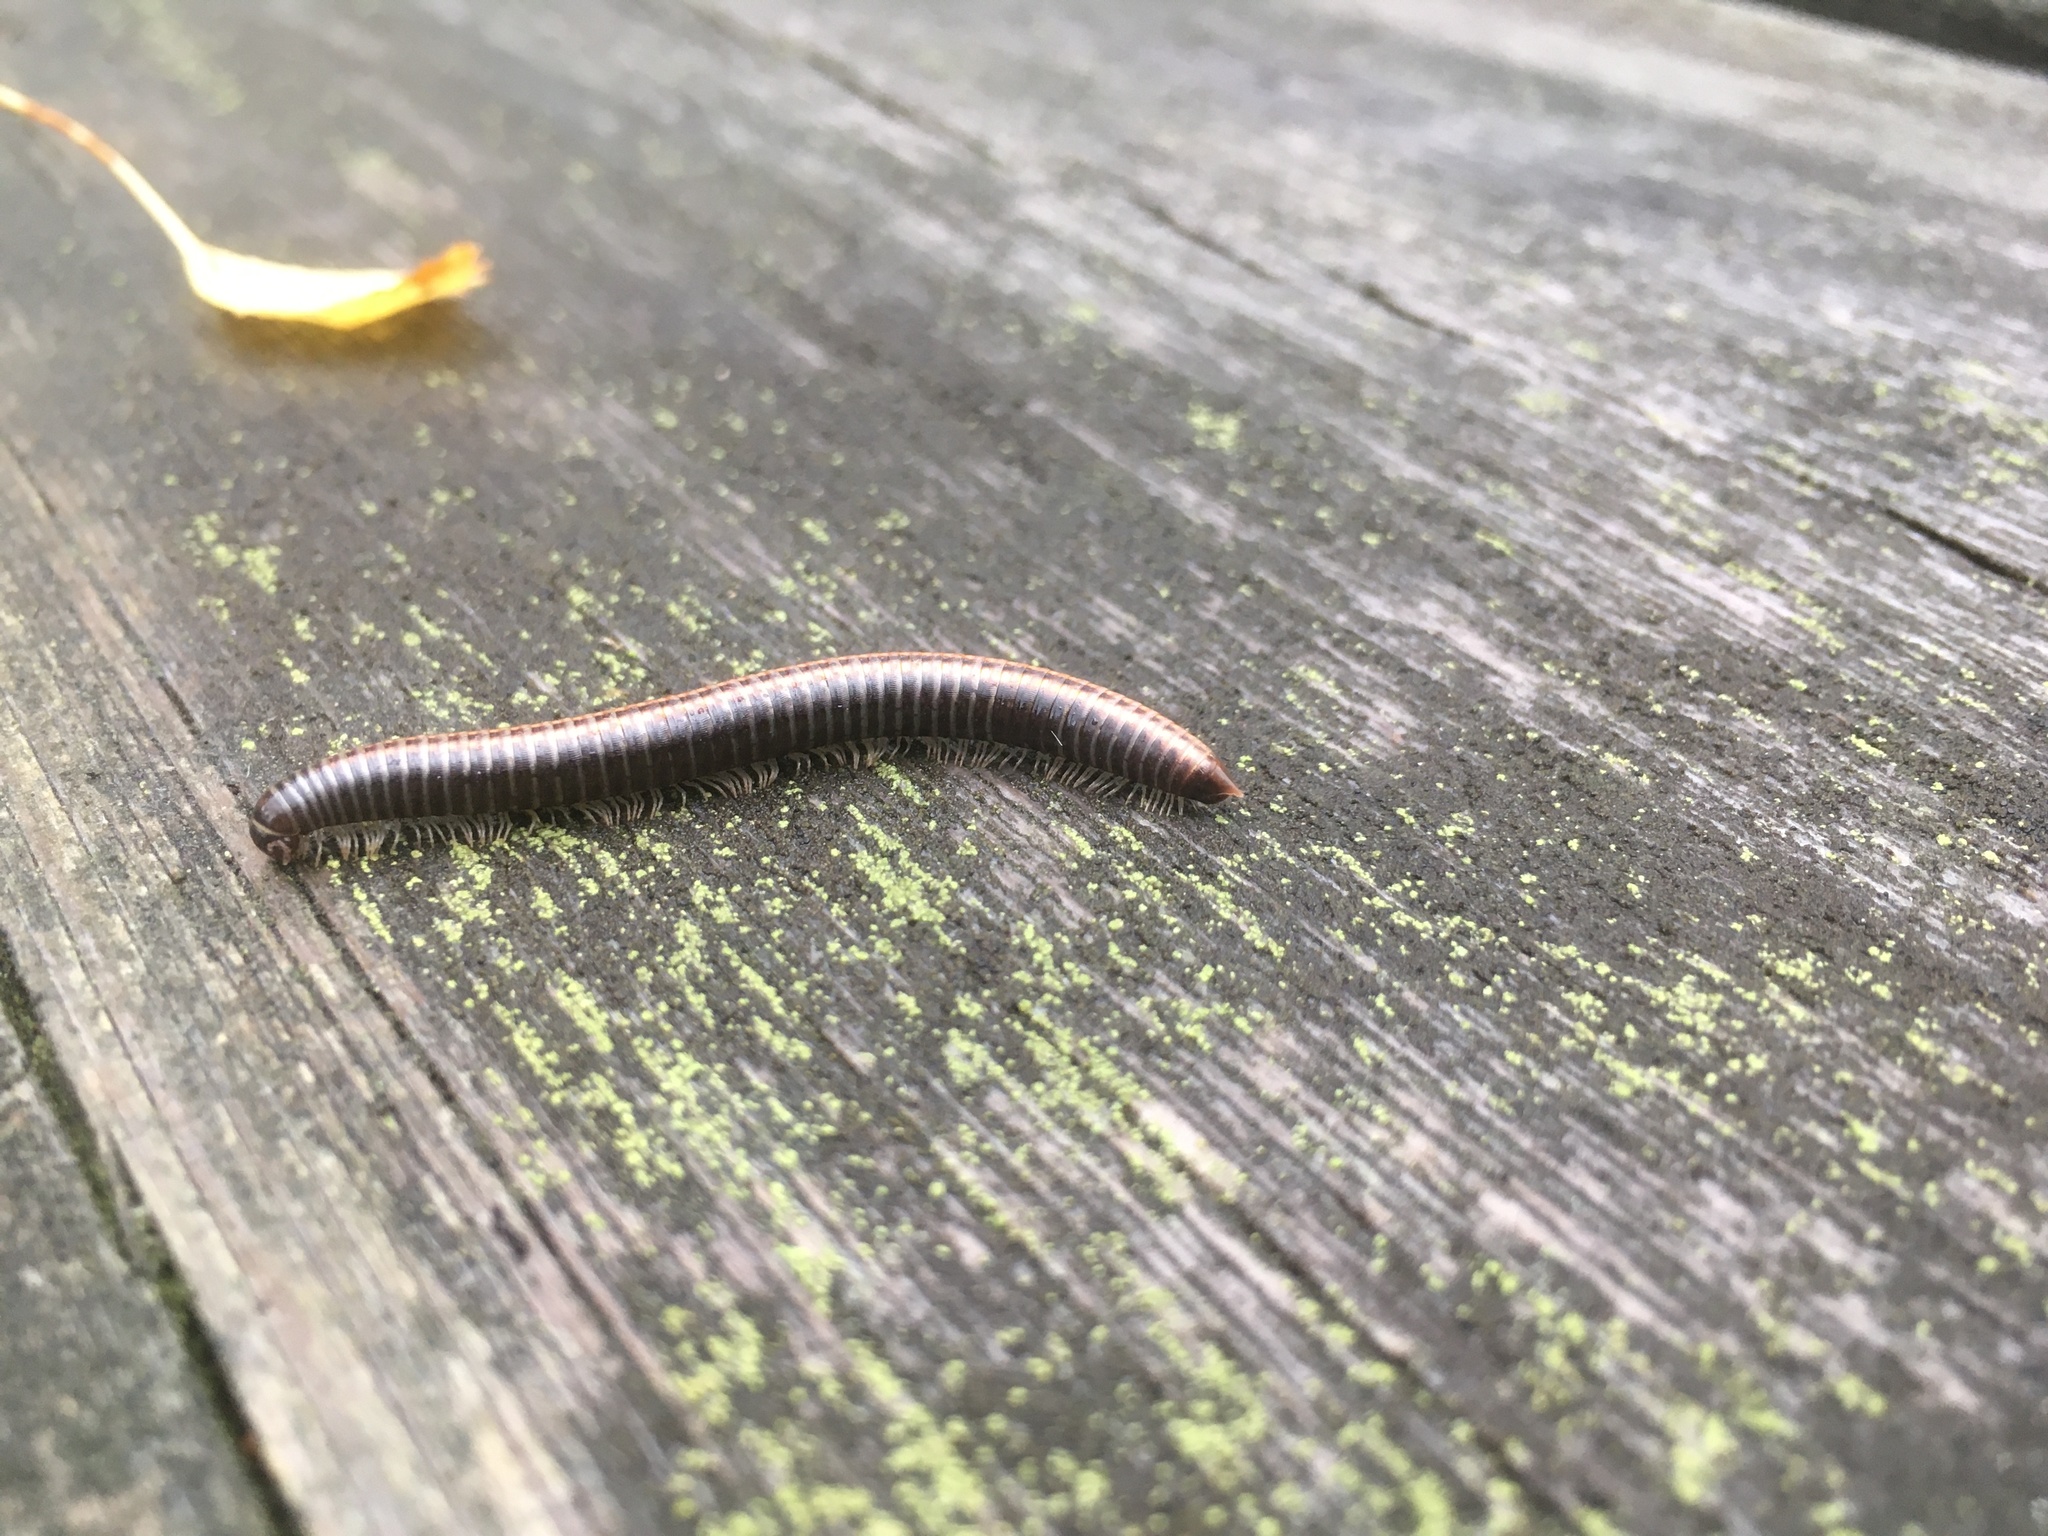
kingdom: Animalia
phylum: Arthropoda
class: Diplopoda
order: Julida
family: Julidae
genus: Ommatoiulus
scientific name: Ommatoiulus sabulosus
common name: Striped millipede
